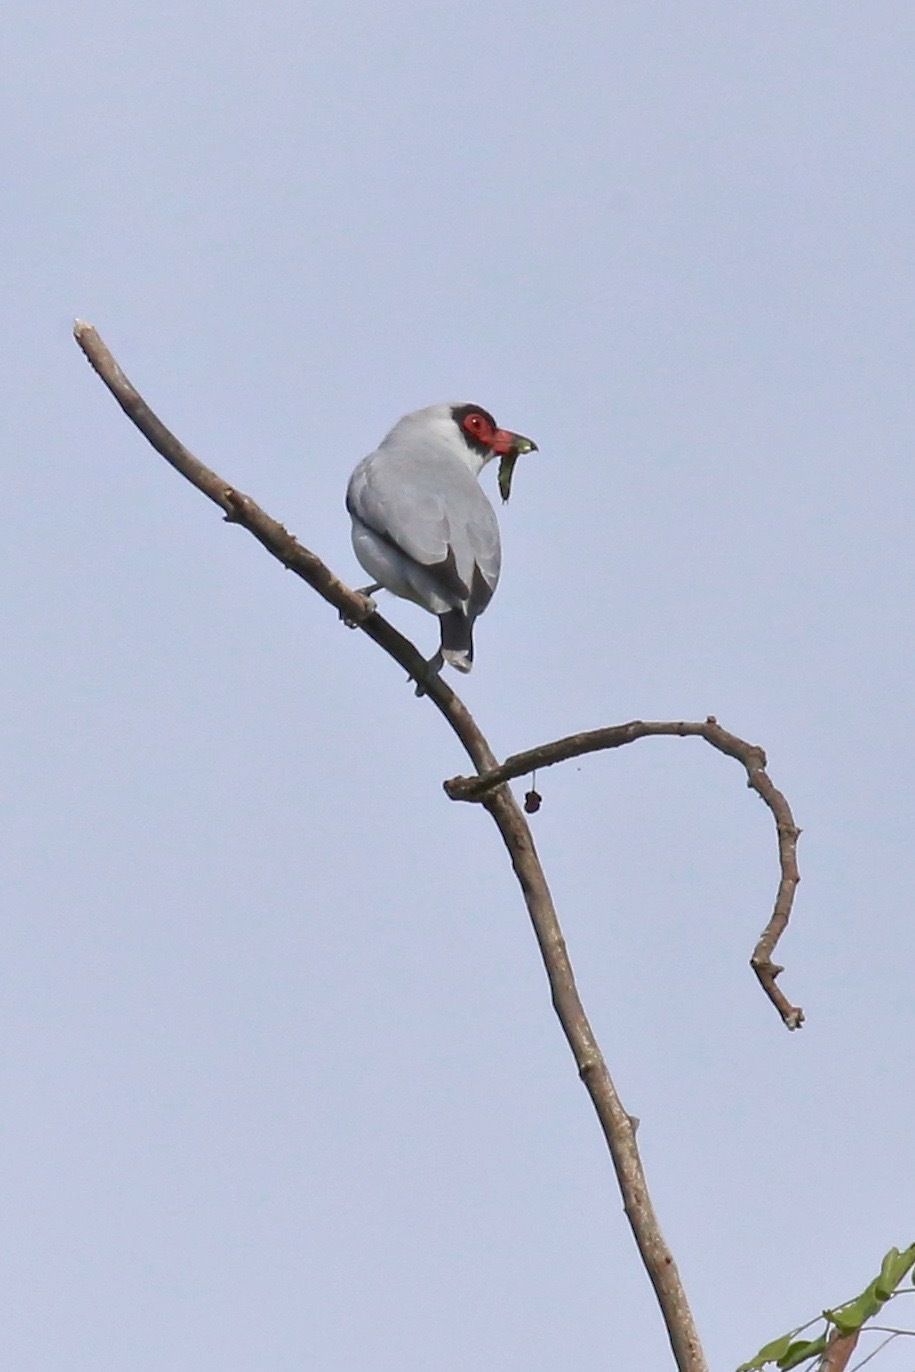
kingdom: Animalia
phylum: Chordata
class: Aves
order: Passeriformes
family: Cotingidae
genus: Tityra
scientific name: Tityra semifasciata
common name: Masked tityra
